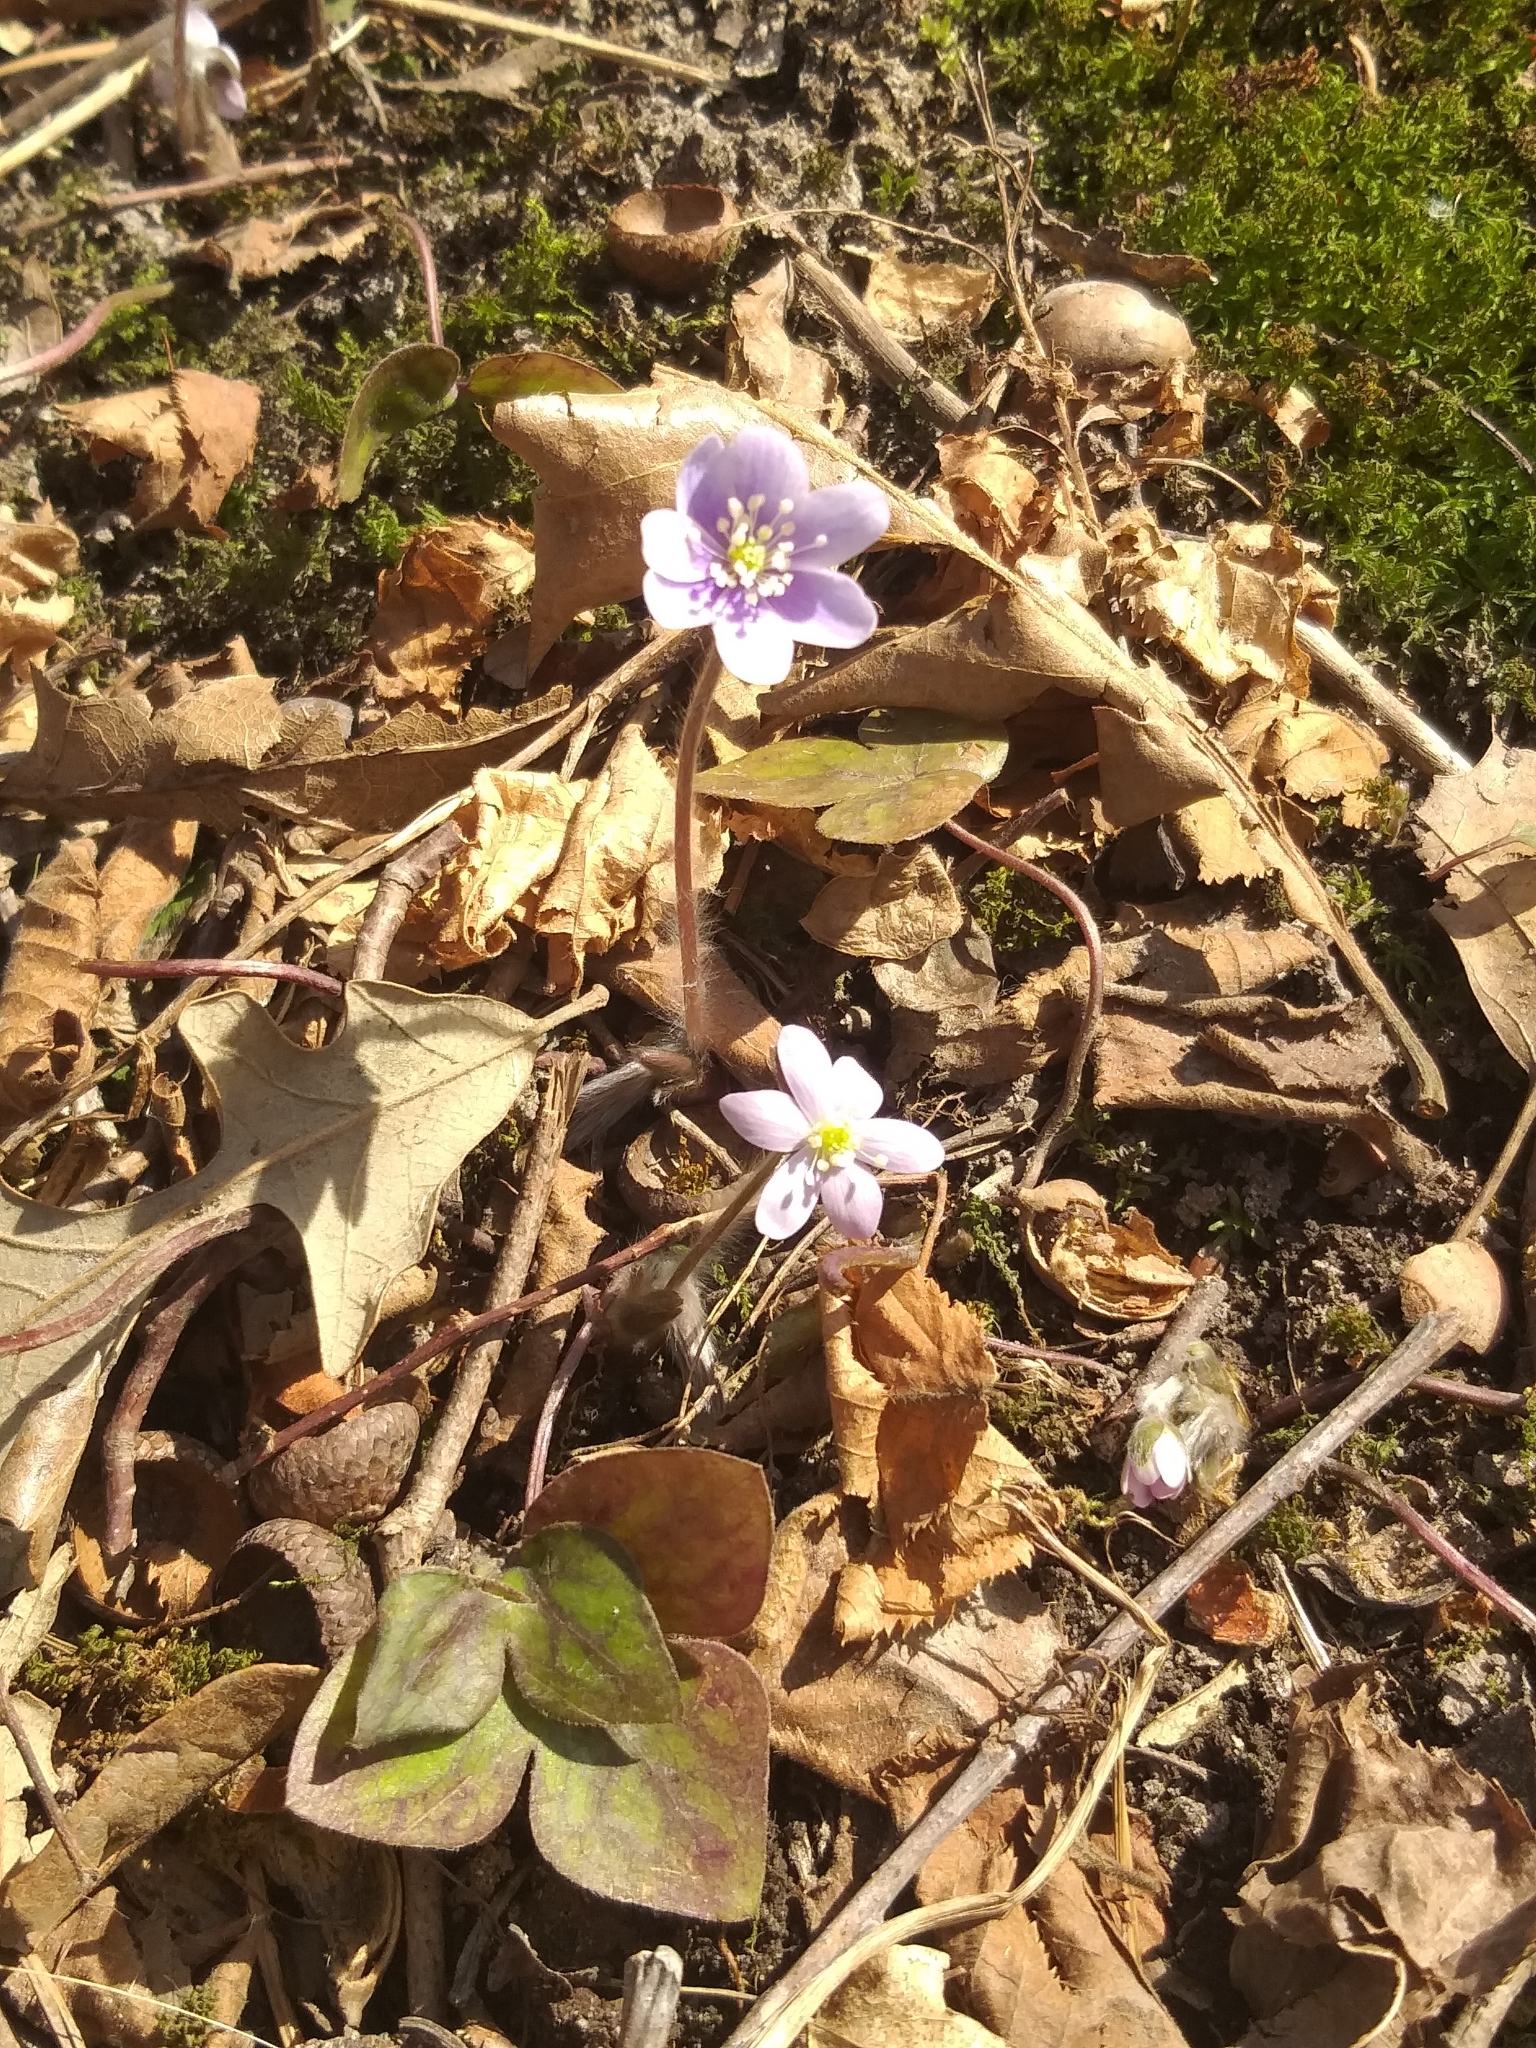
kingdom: Plantae
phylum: Tracheophyta
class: Magnoliopsida
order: Ranunculales
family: Ranunculaceae
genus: Hepatica
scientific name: Hepatica acutiloba
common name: Sharp-lobed hepatica
